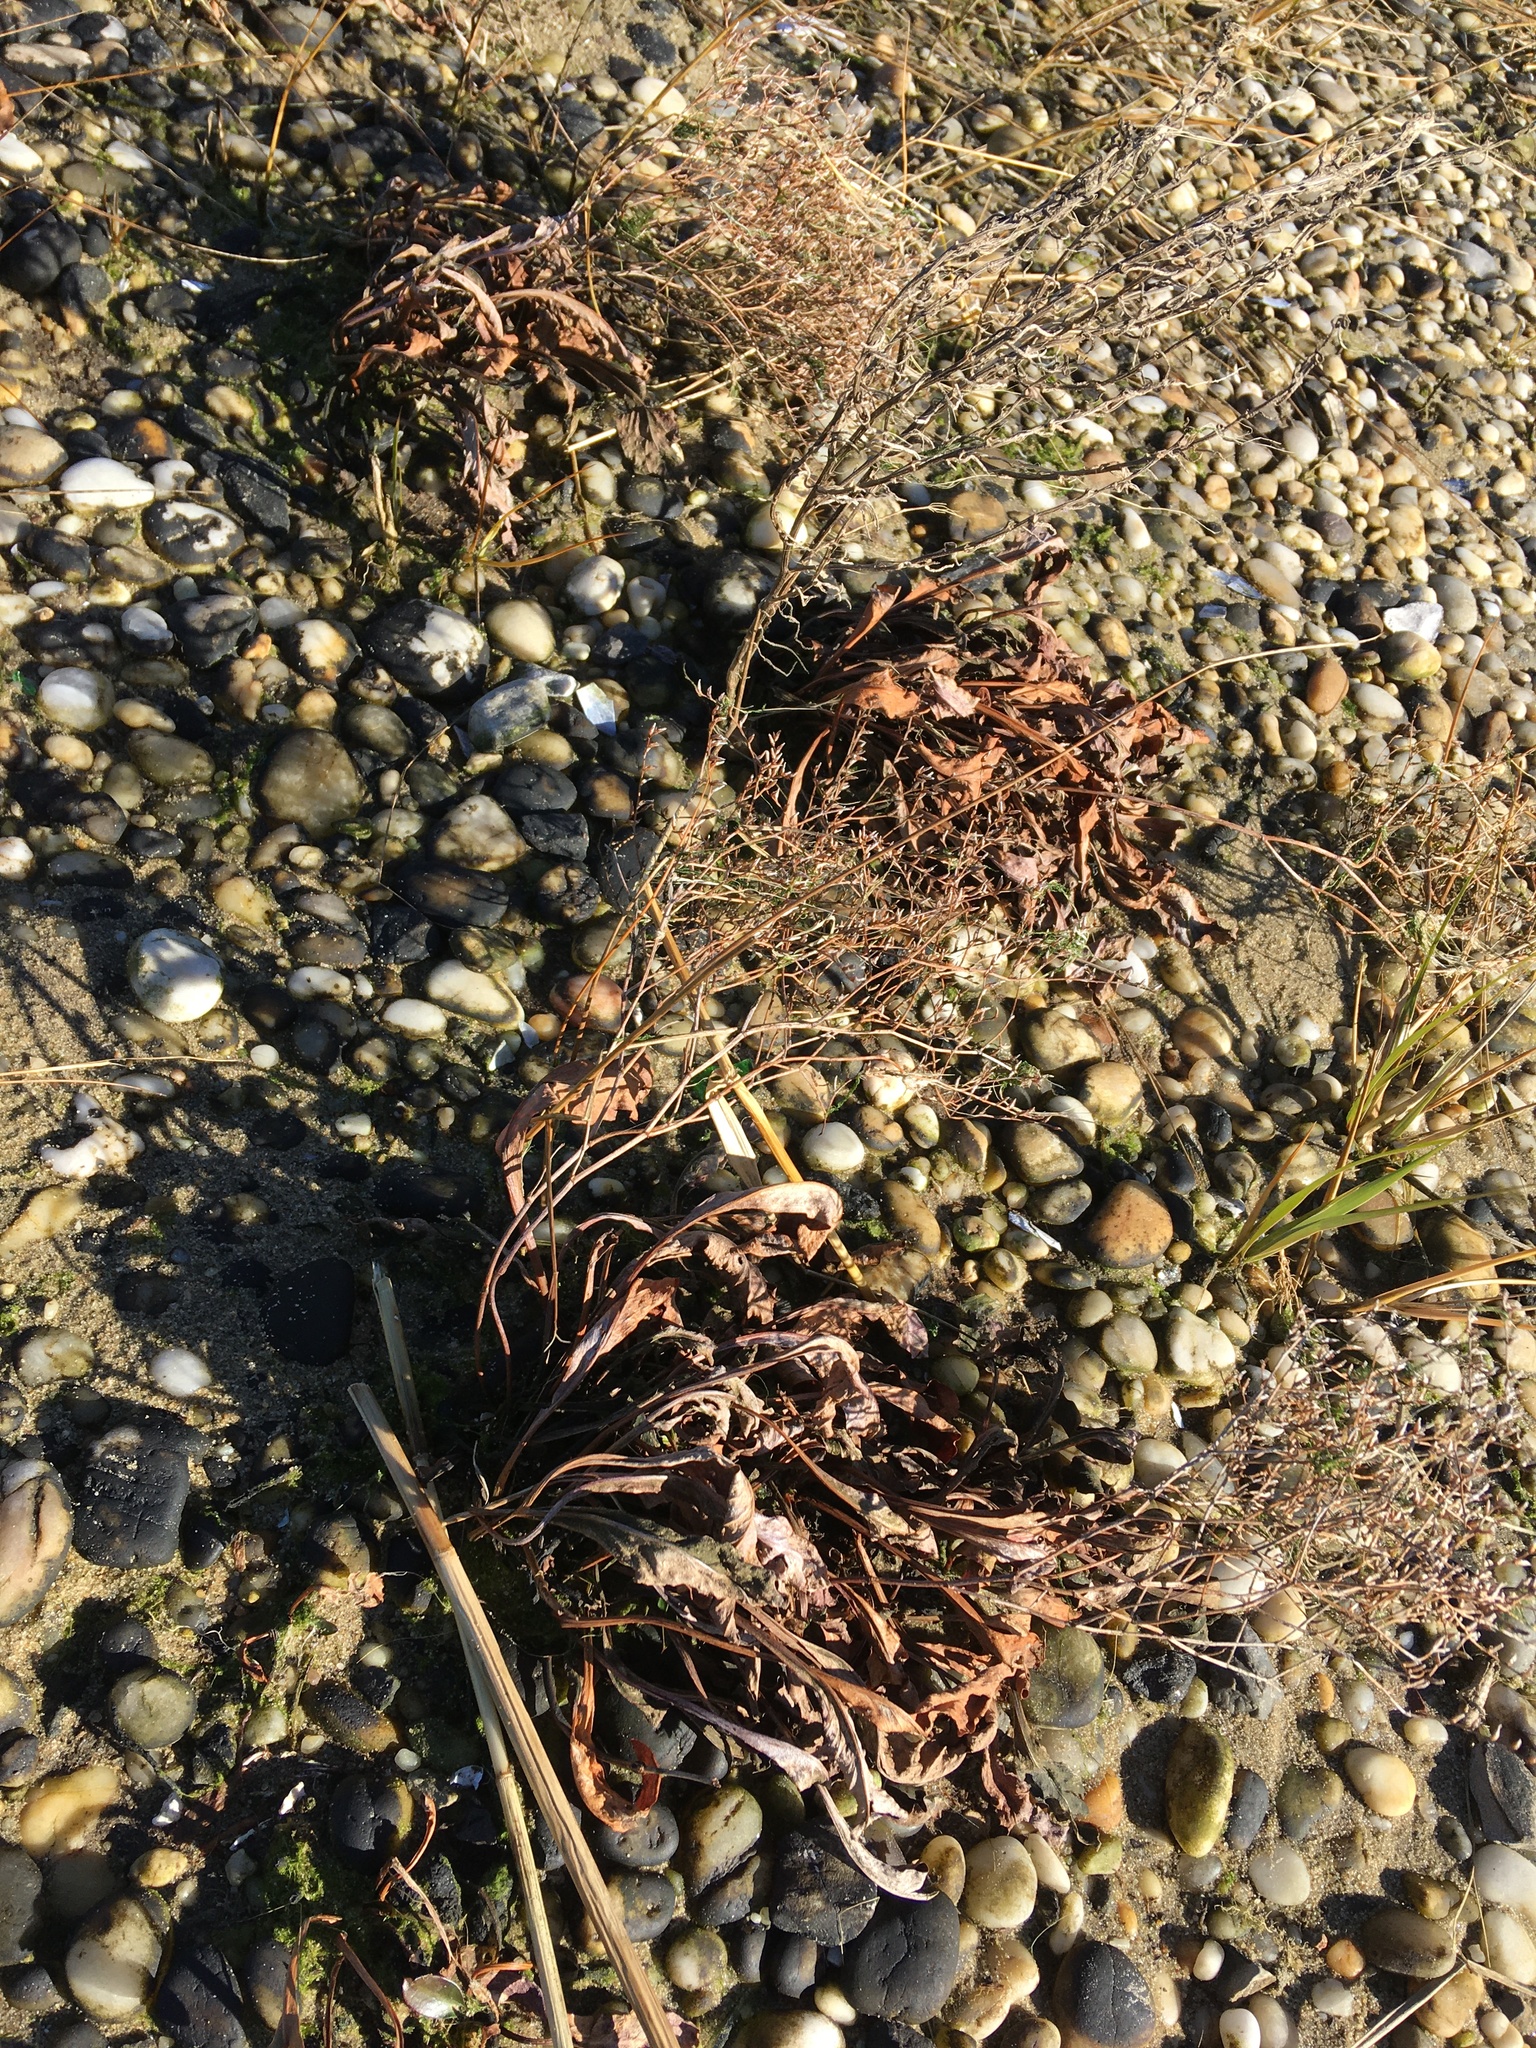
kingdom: Plantae
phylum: Tracheophyta
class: Magnoliopsida
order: Caryophyllales
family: Plumbaginaceae
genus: Limonium
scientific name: Limonium carolinianum
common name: Carolina sea lavender
